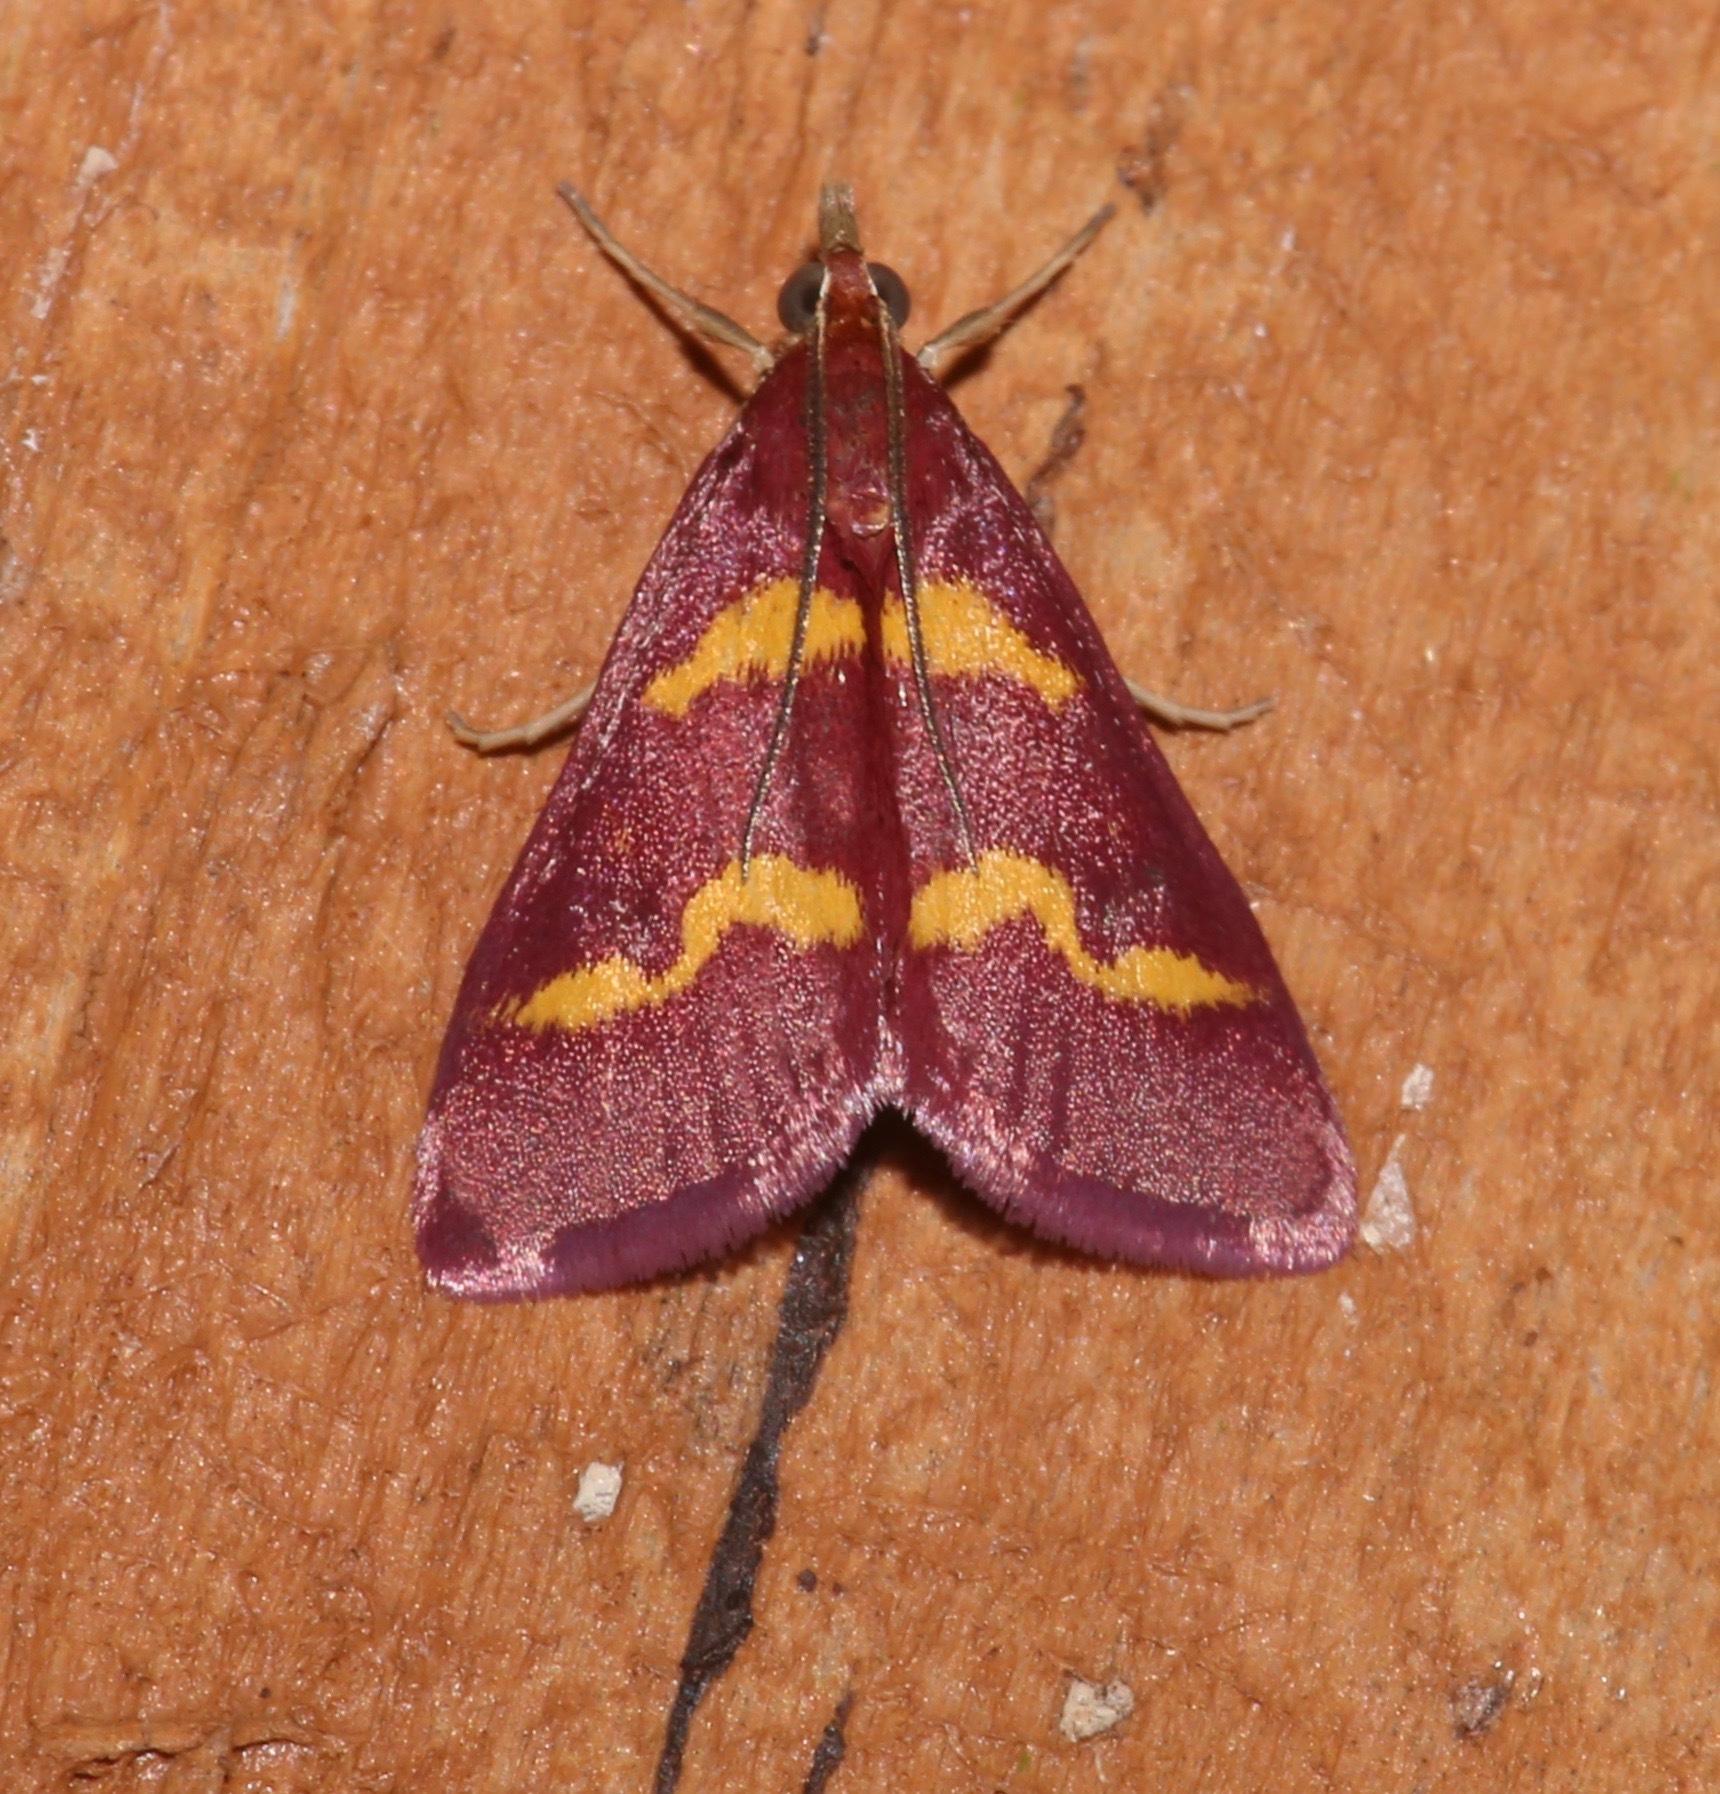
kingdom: Animalia
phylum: Arthropoda
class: Insecta
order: Lepidoptera
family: Crambidae
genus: Pyrausta
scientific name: Pyrausta tyralis
